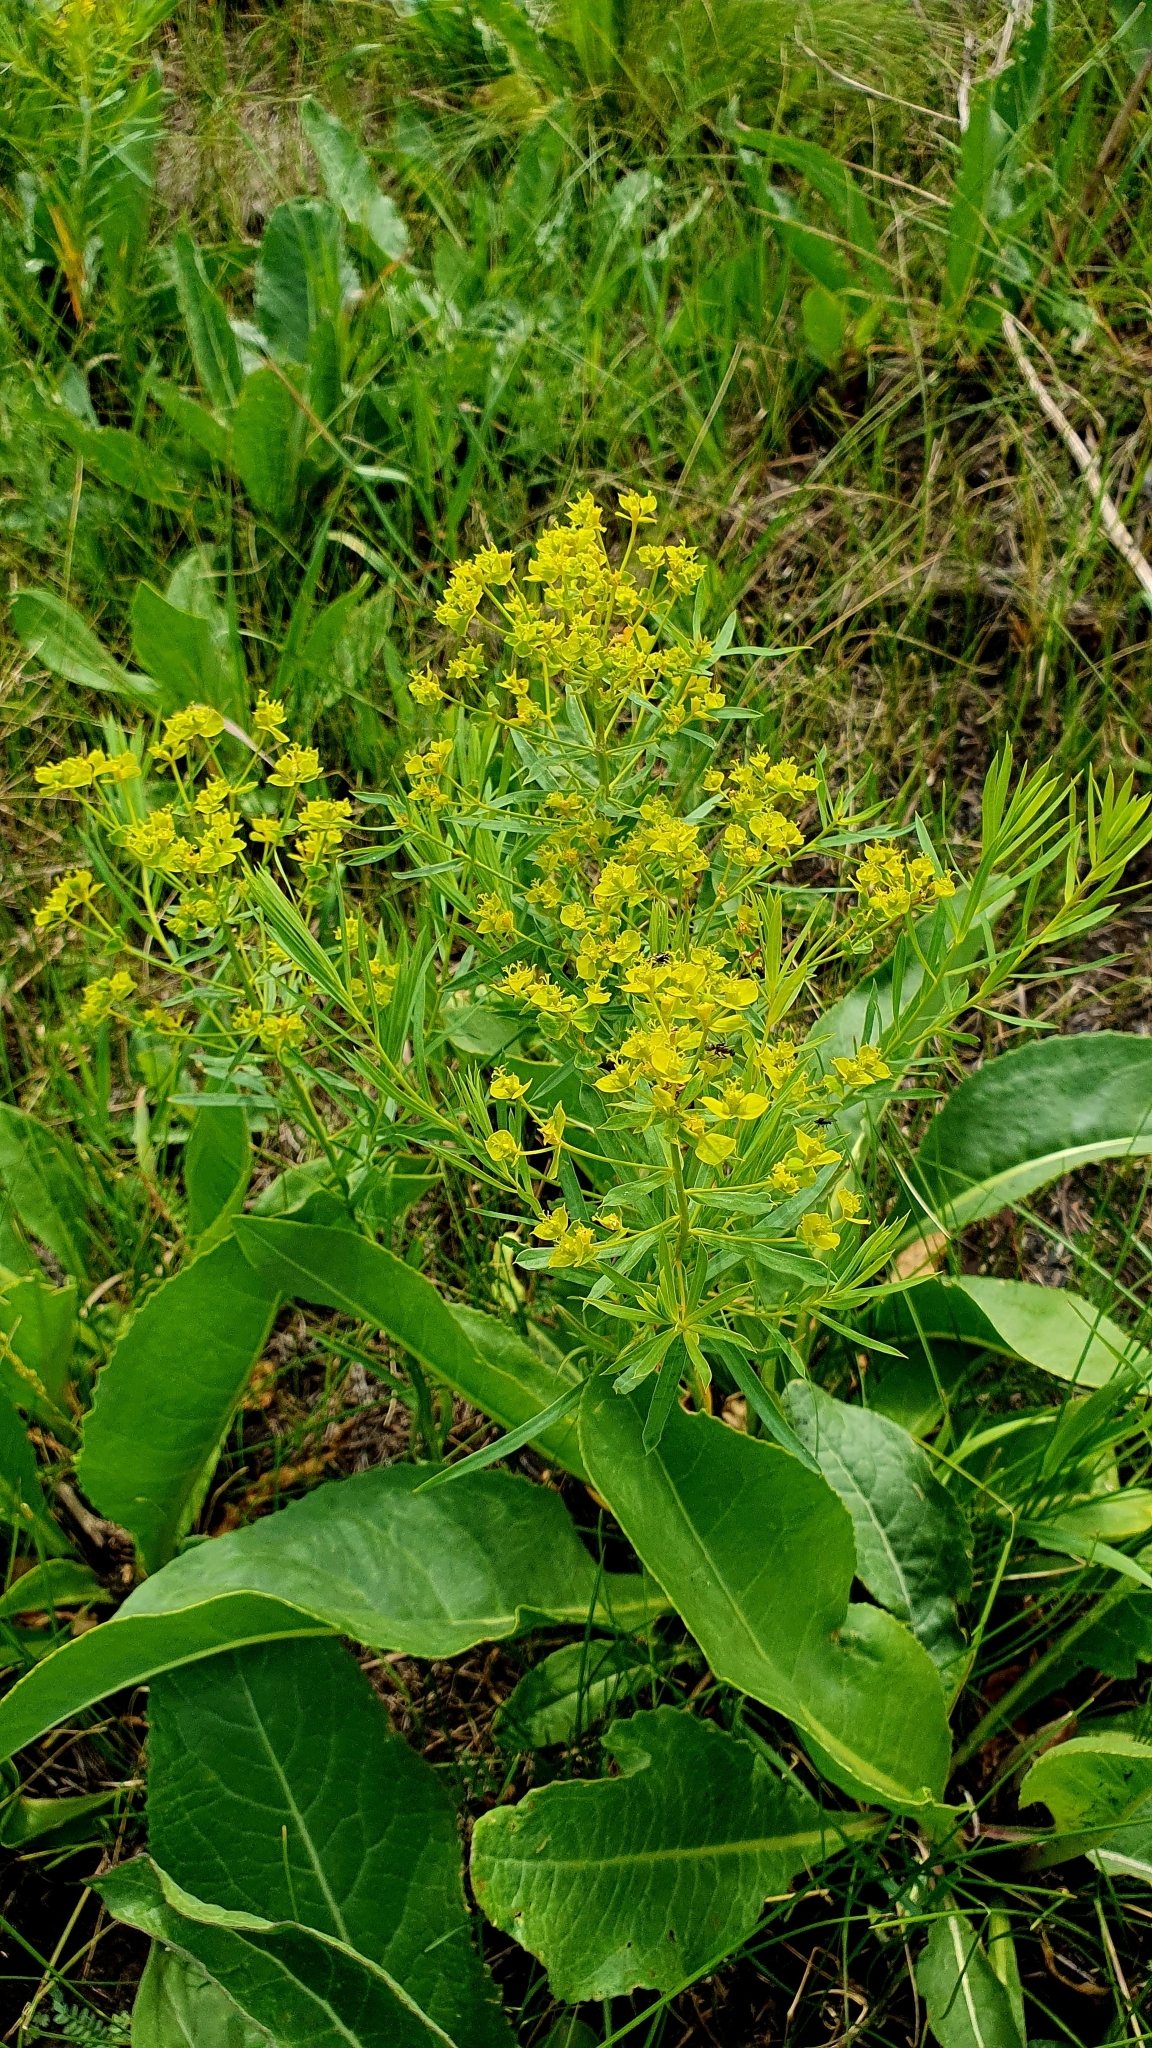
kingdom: Plantae
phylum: Tracheophyta
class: Magnoliopsida
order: Malpighiales
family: Euphorbiaceae
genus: Euphorbia
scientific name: Euphorbia virgata
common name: Leafy spurge
